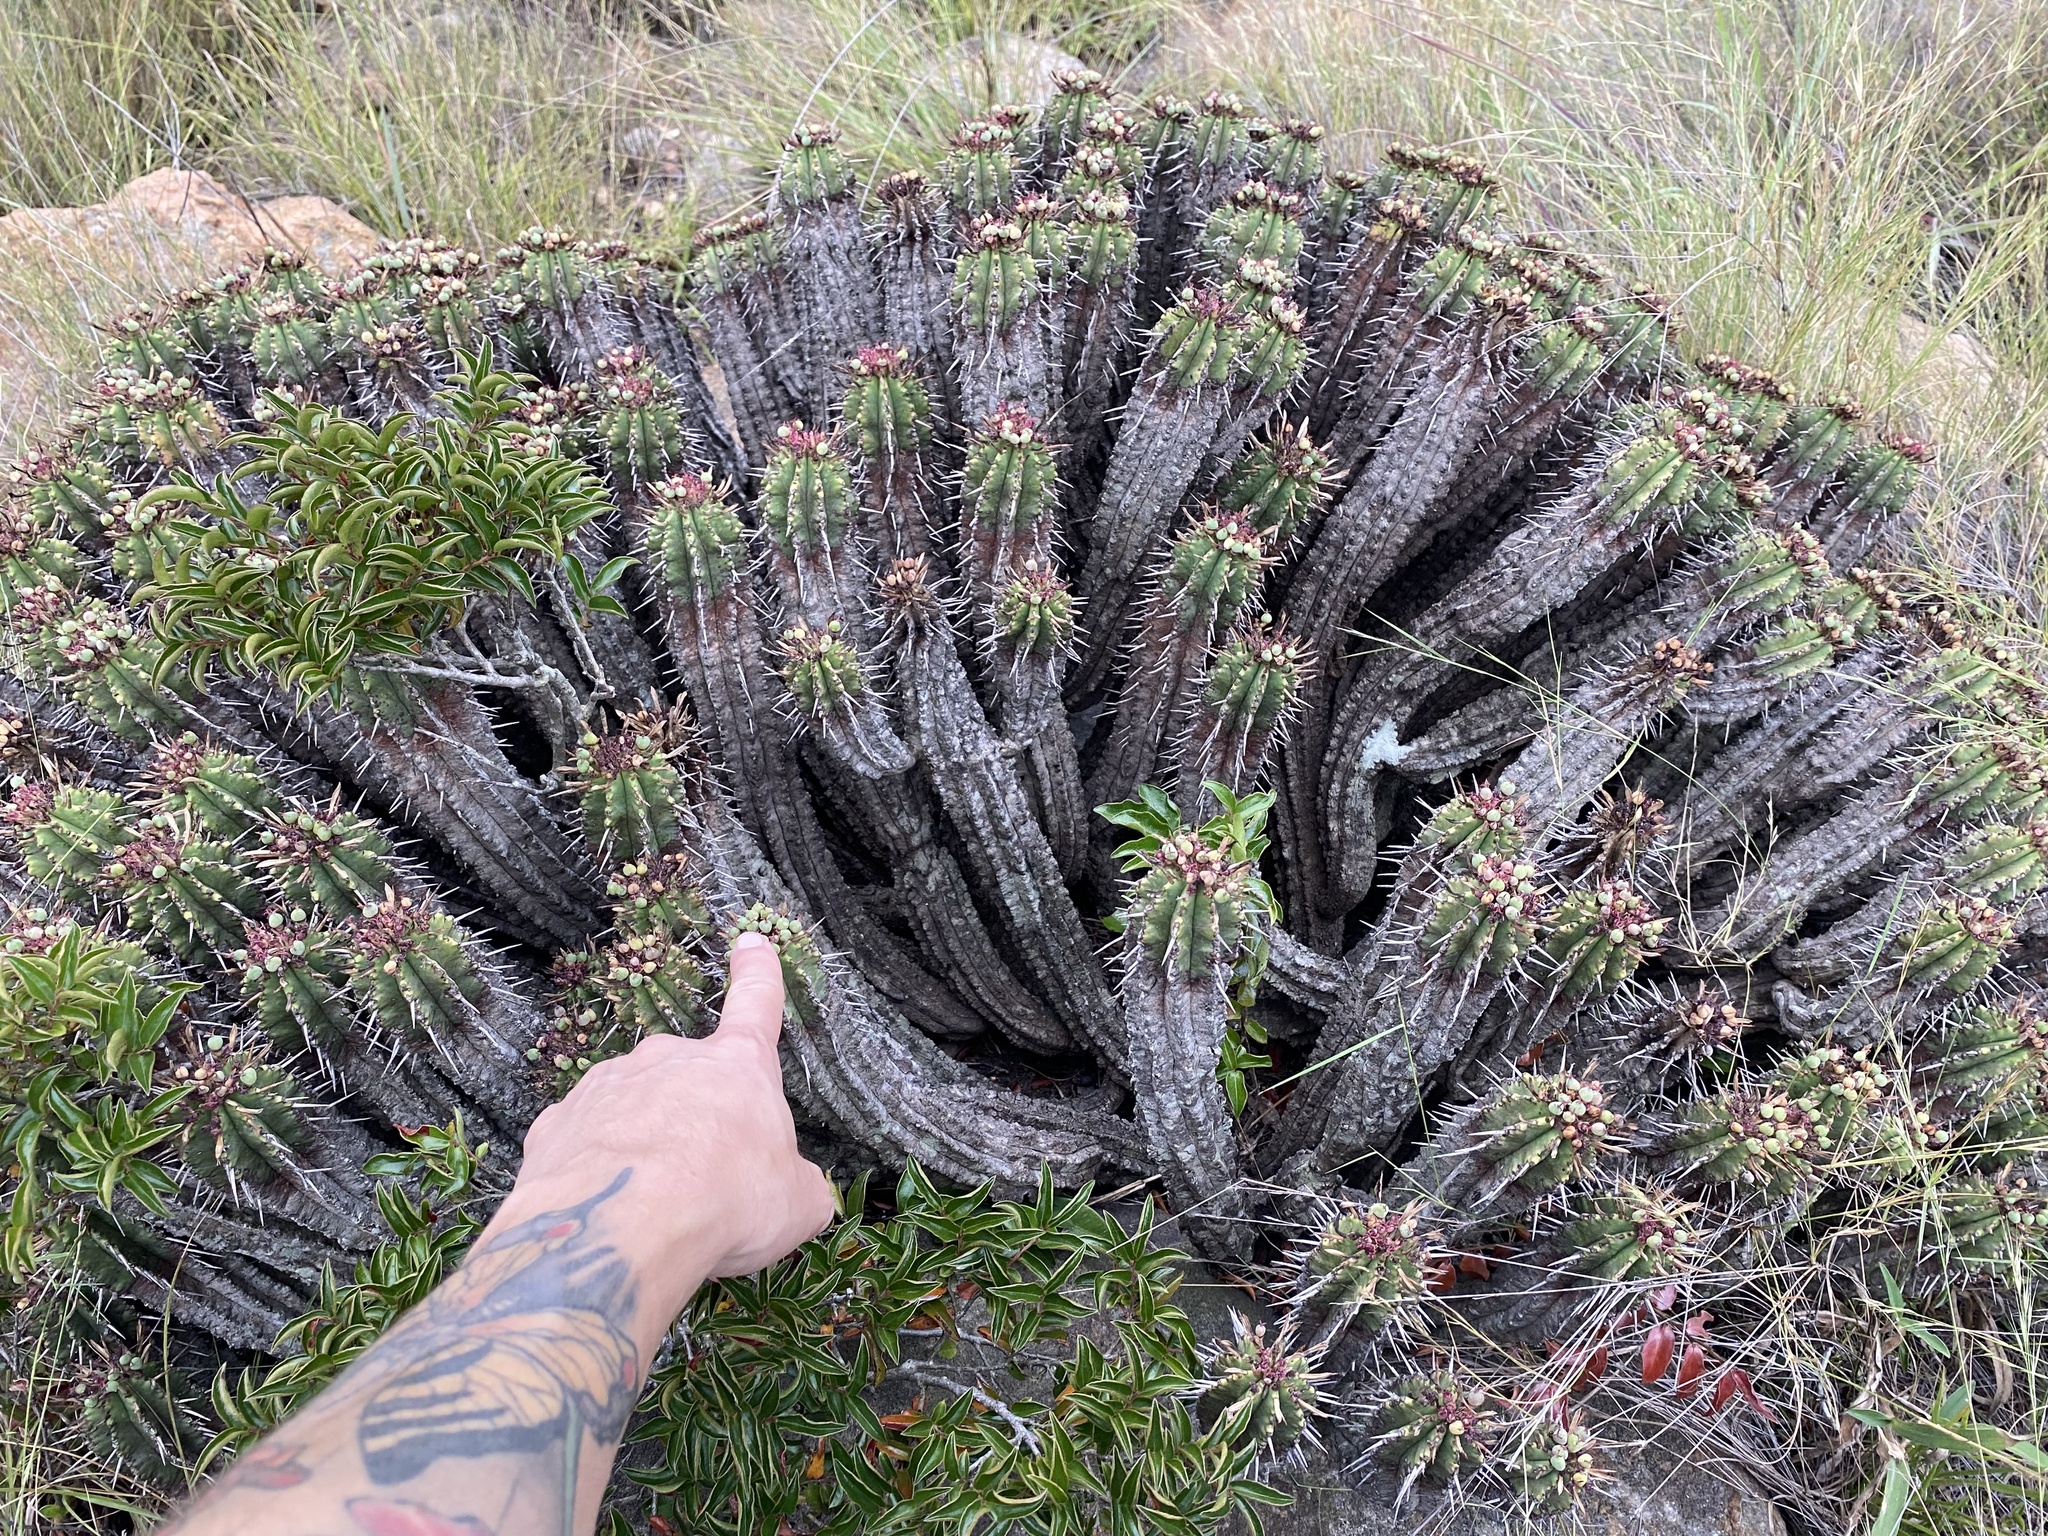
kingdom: Plantae
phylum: Tracheophyta
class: Magnoliopsida
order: Malpighiales
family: Euphorbiaceae
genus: Euphorbia
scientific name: Euphorbia pulvinata
